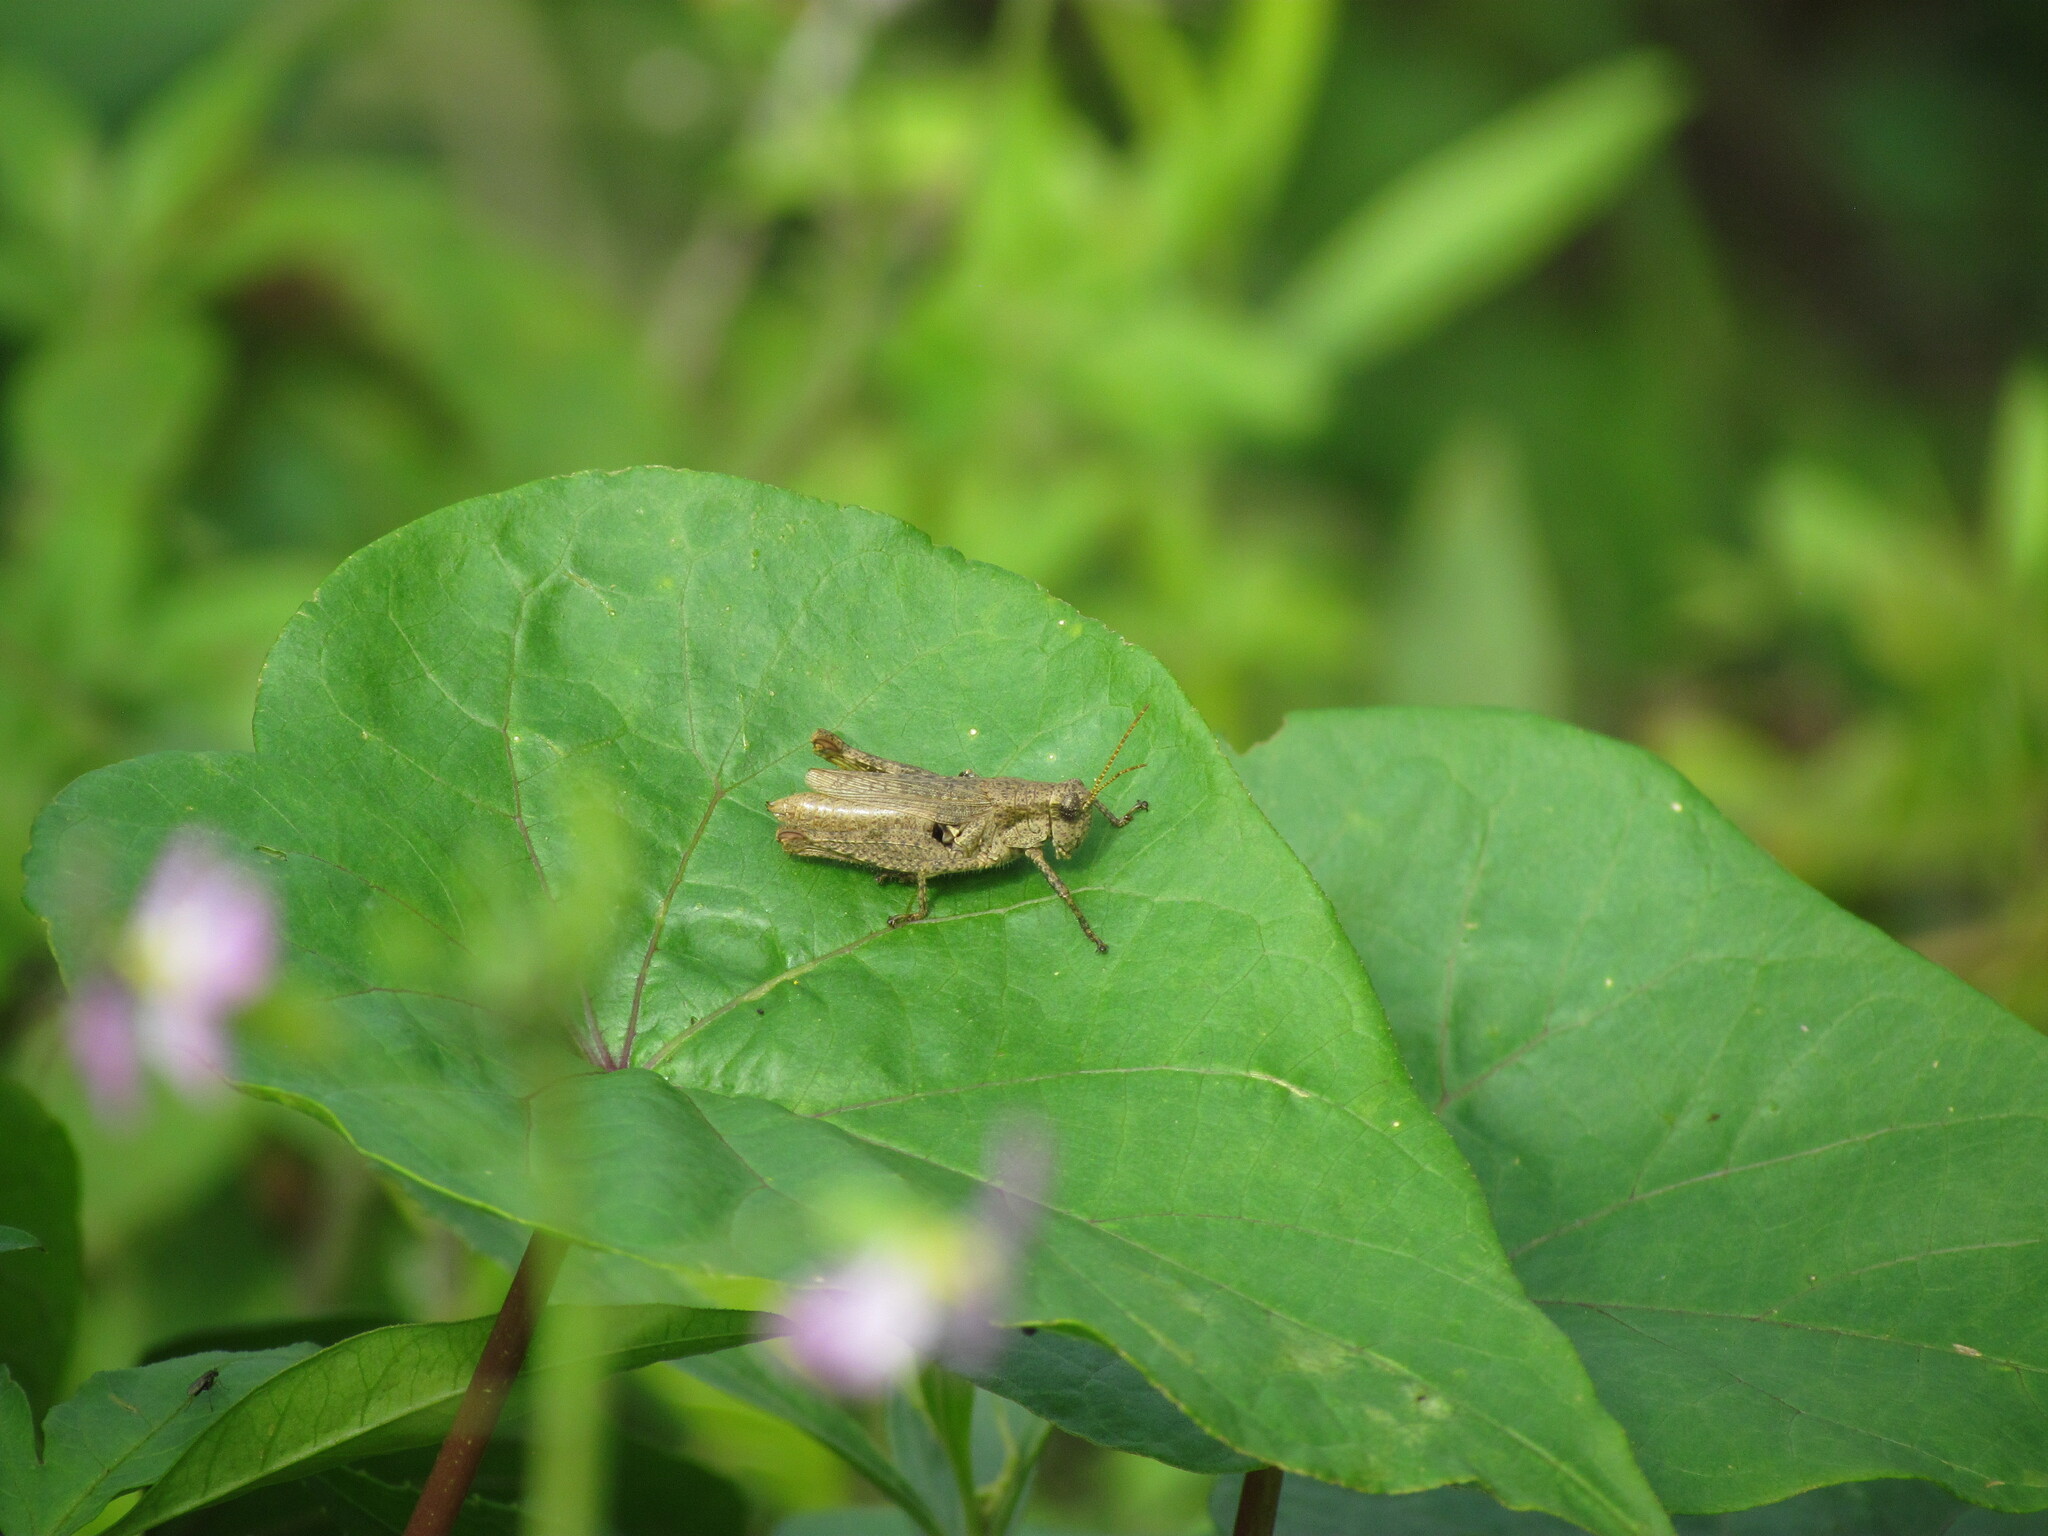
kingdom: Animalia
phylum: Arthropoda
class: Insecta
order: Orthoptera
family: Acrididae
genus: Ronderosia
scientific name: Ronderosia bergii
